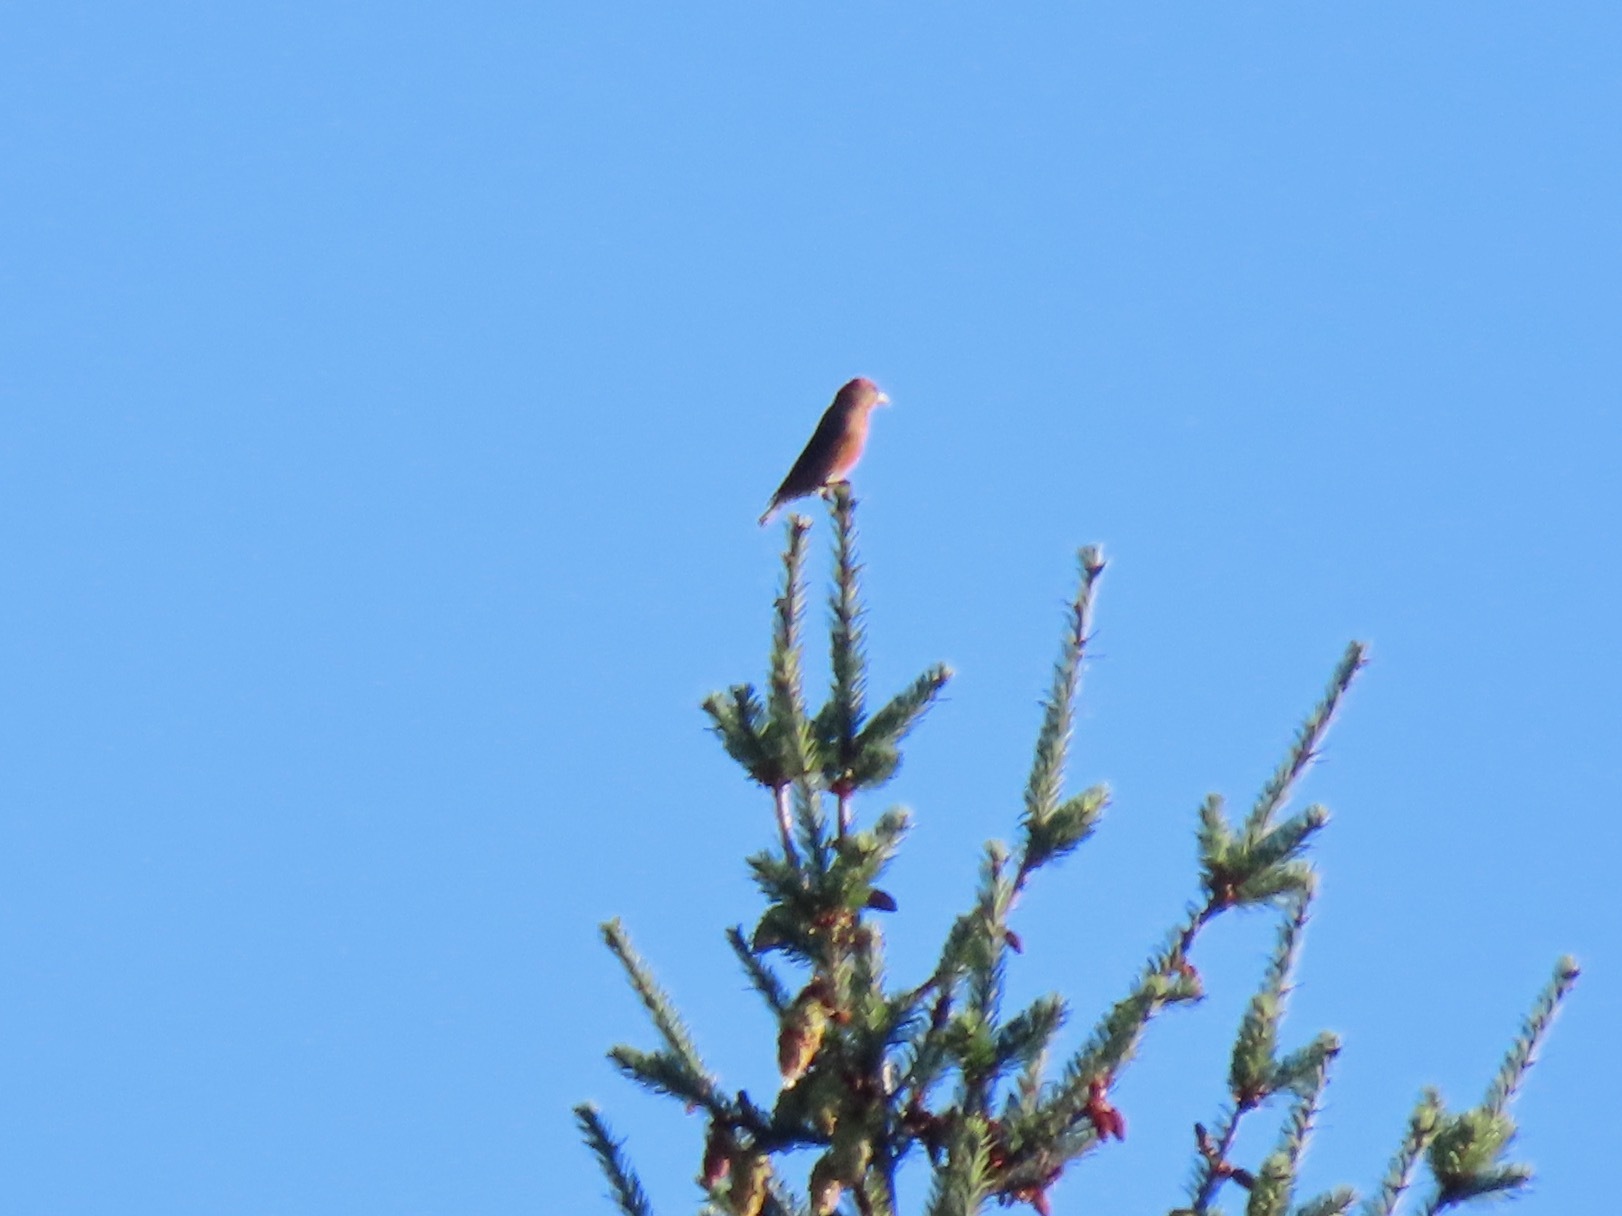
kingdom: Animalia
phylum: Chordata
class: Aves
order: Passeriformes
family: Fringillidae
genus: Loxia
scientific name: Loxia curvirostra
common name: Red crossbill
